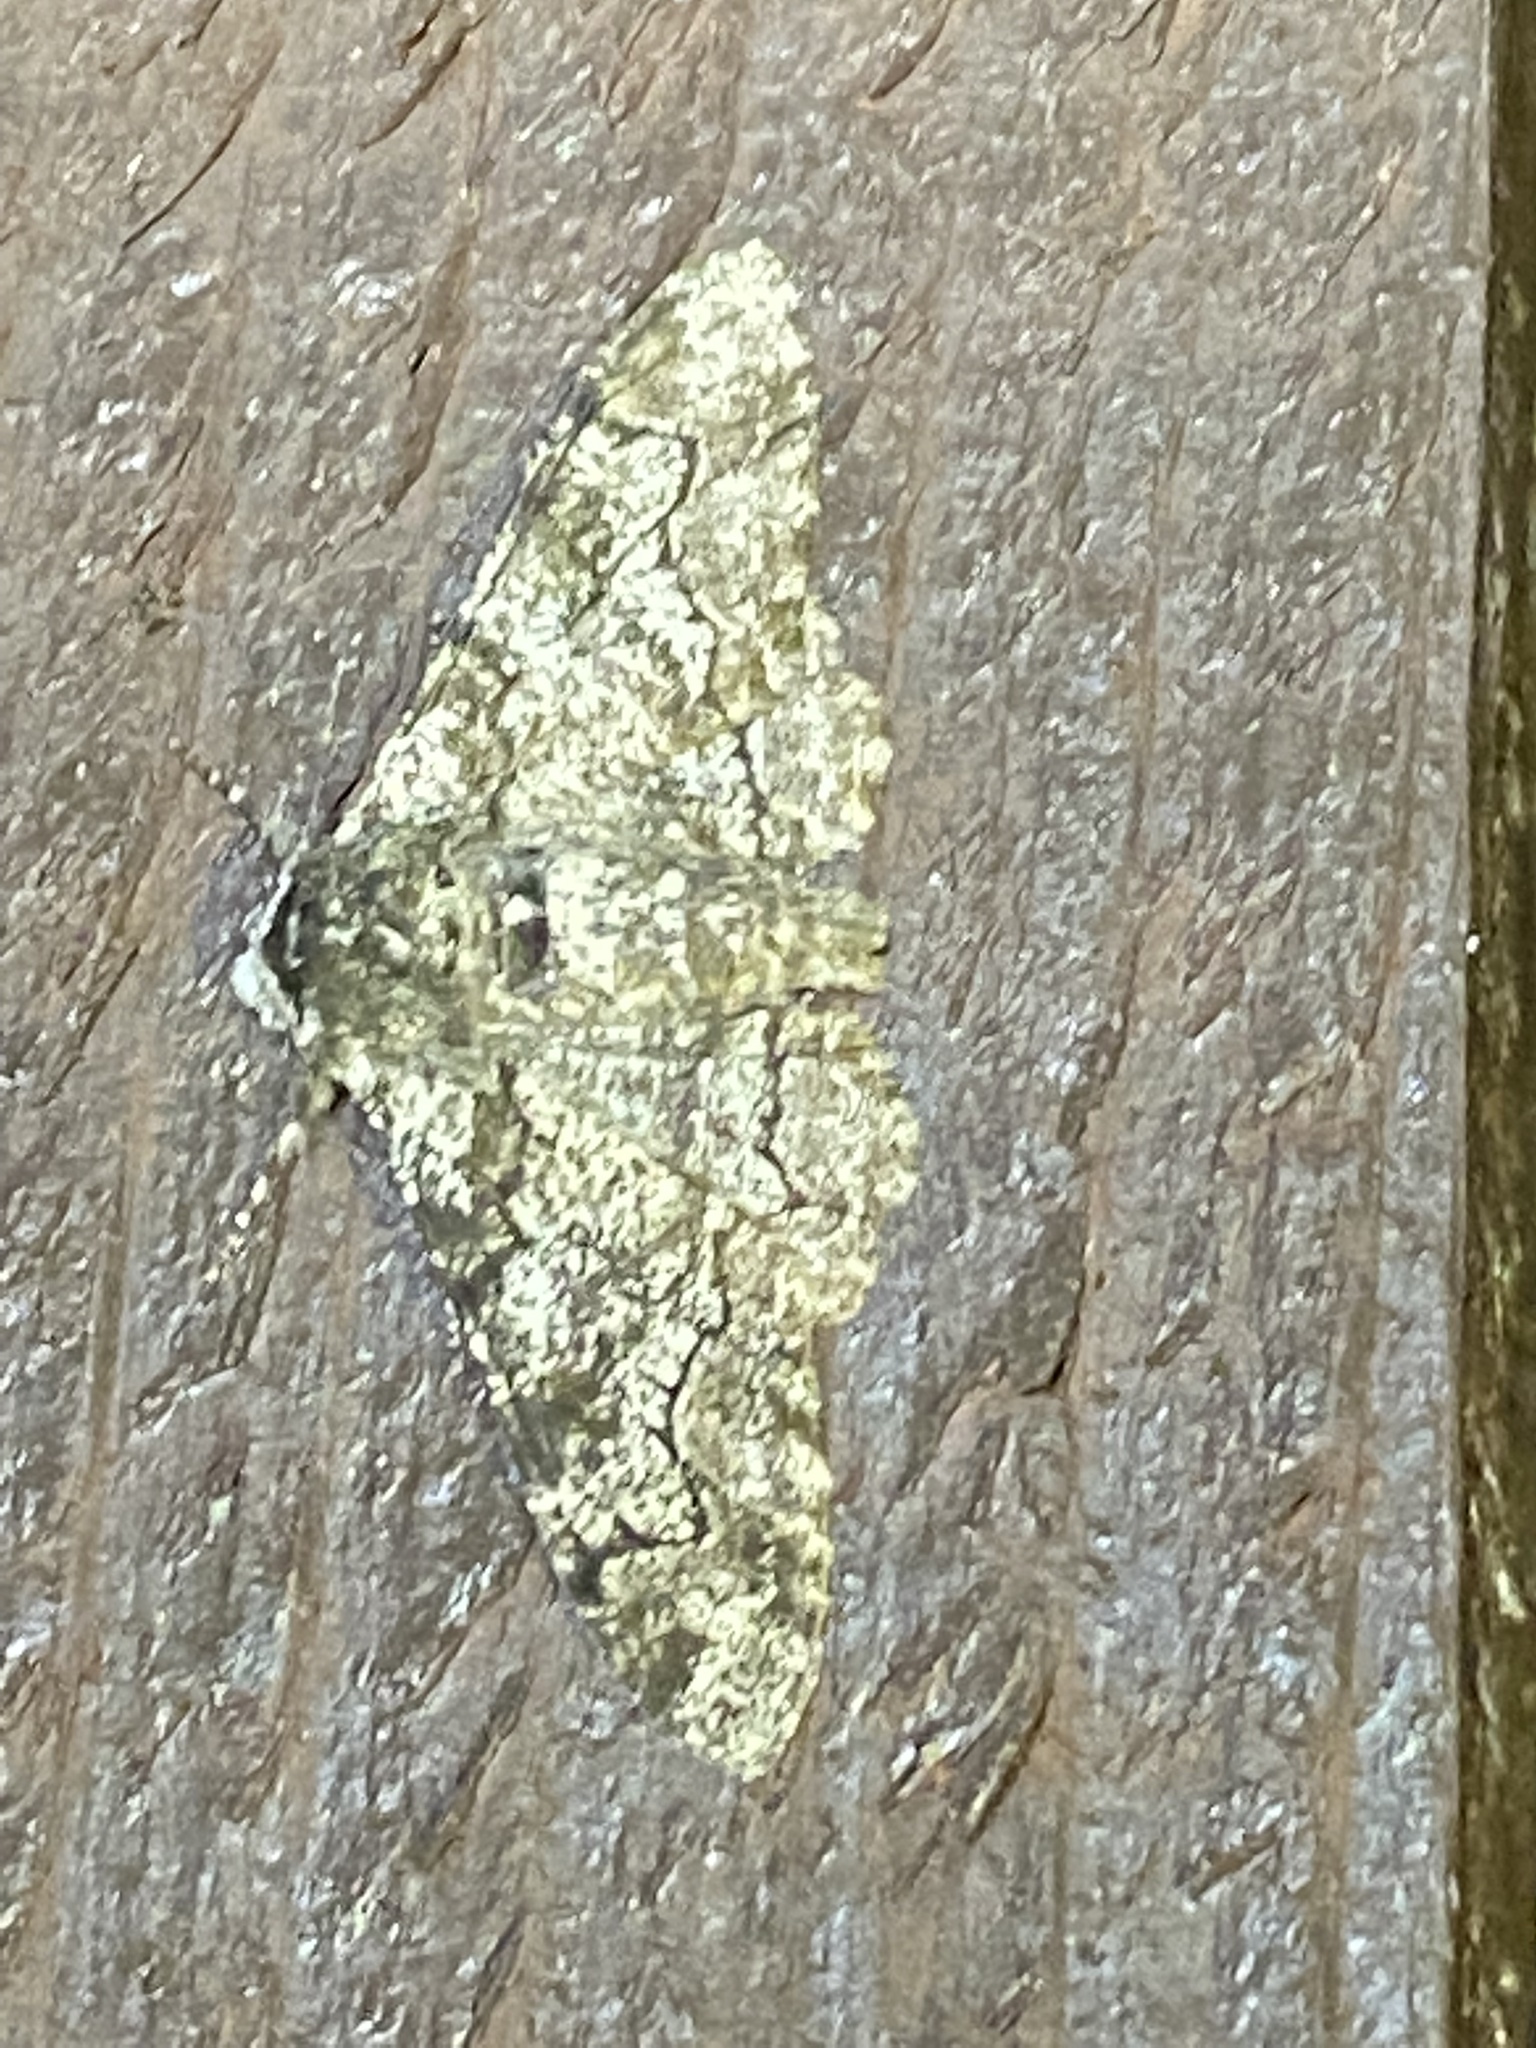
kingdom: Animalia
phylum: Arthropoda
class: Insecta
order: Lepidoptera
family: Geometridae
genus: Biston
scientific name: Biston betularia
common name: Peppered moth
